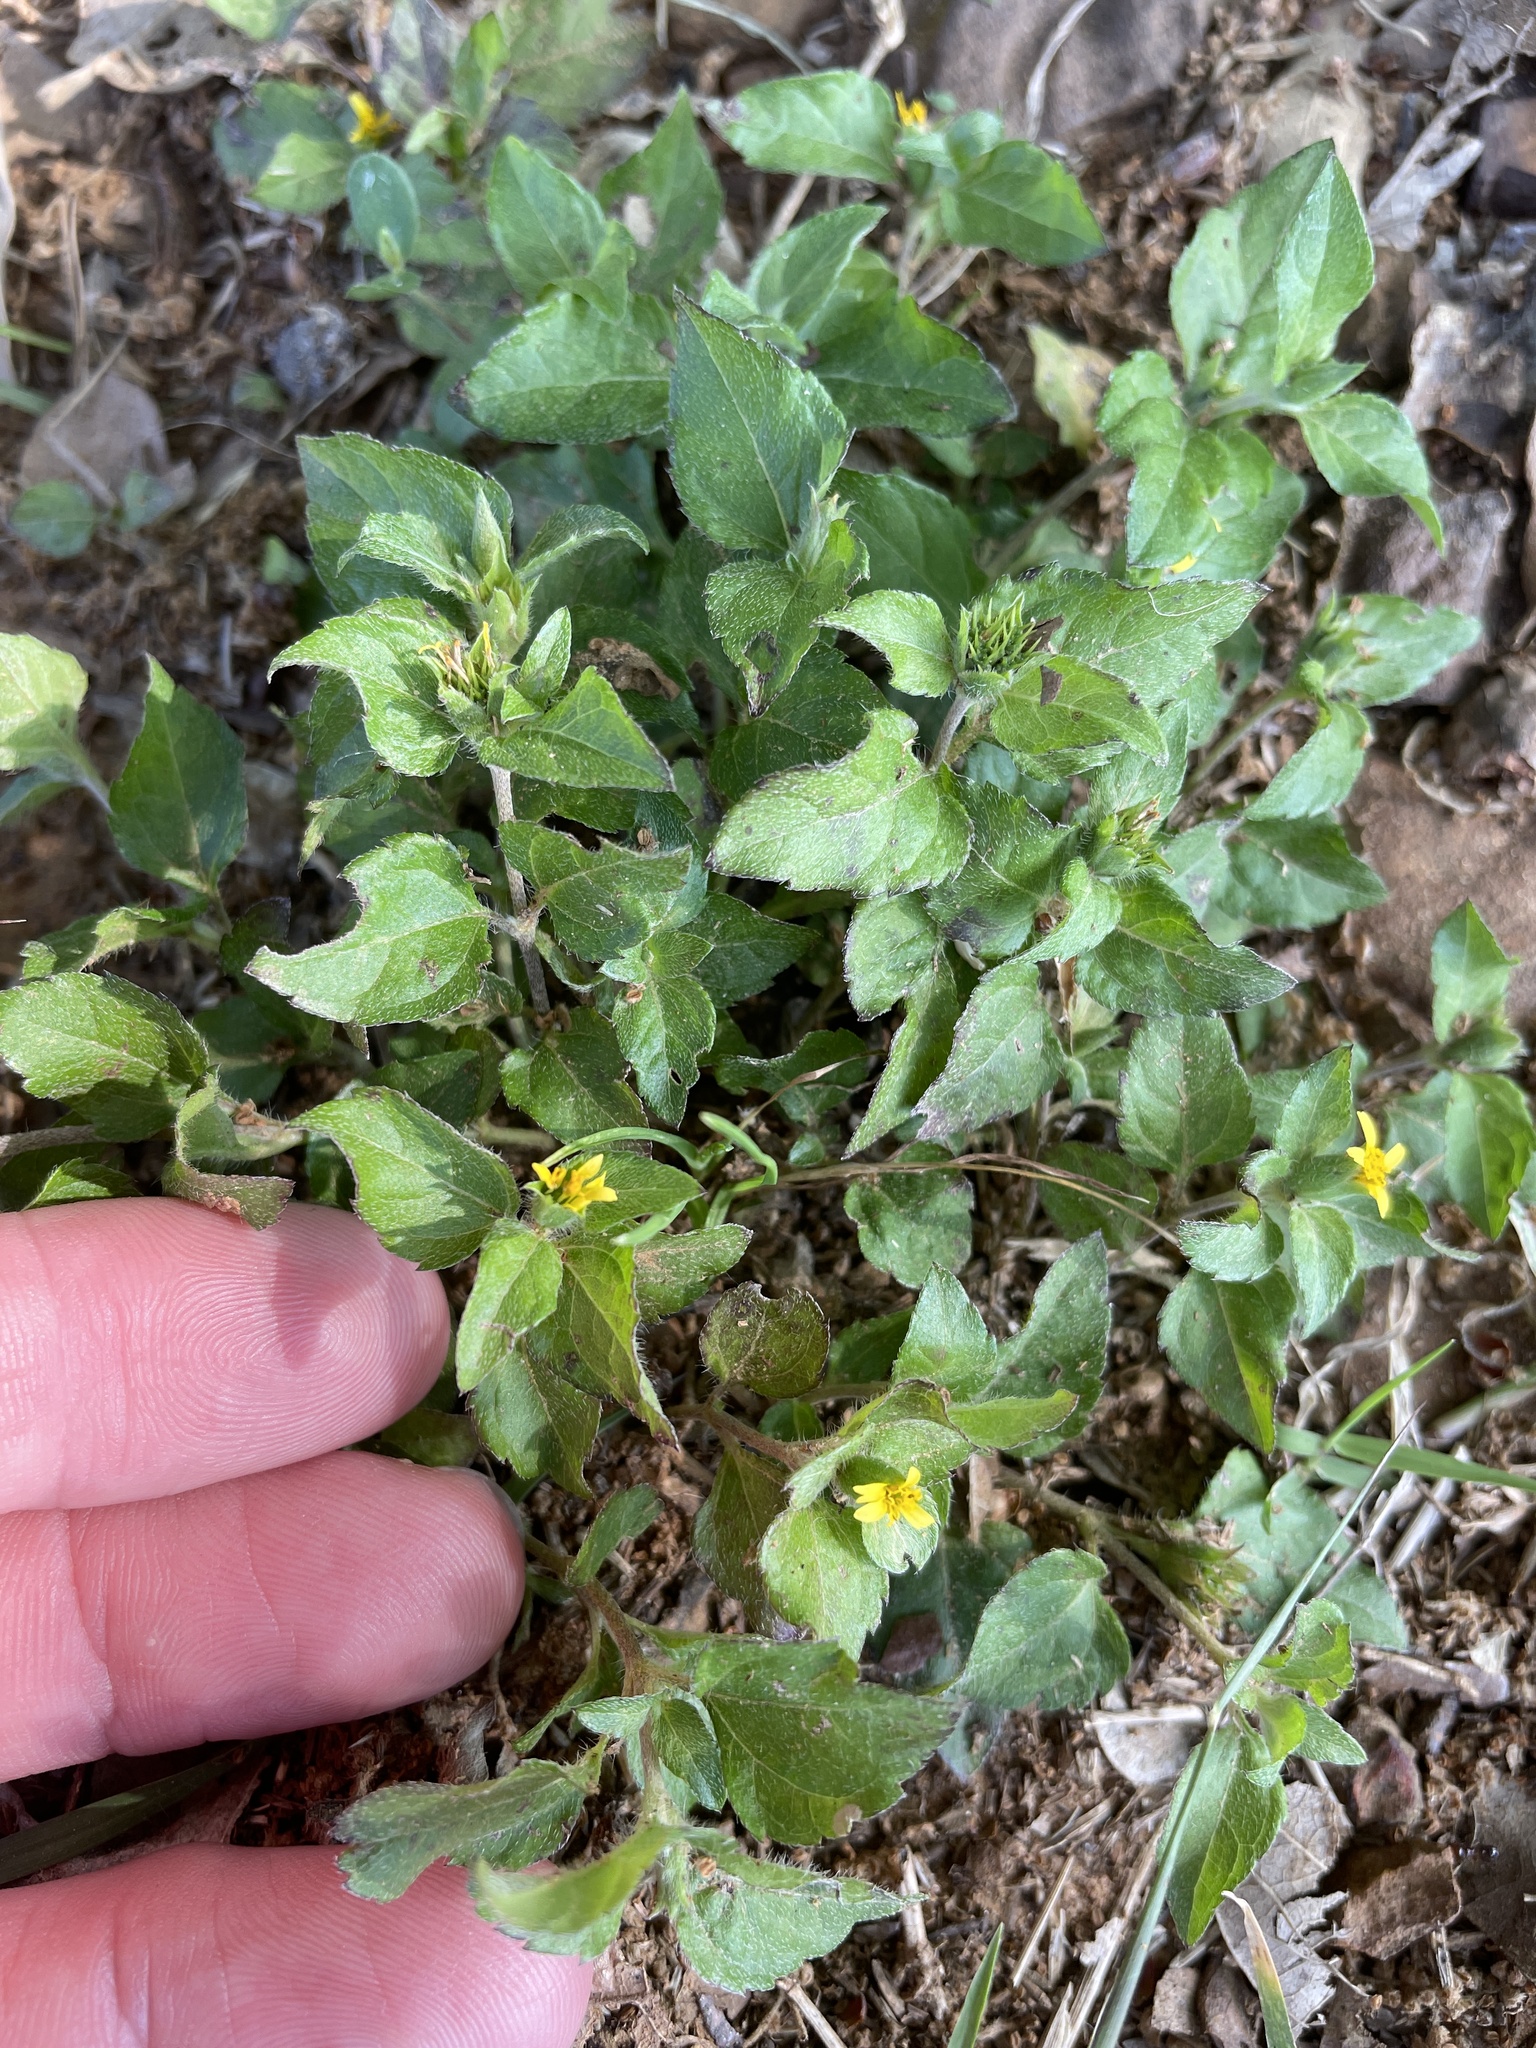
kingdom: Plantae
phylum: Tracheophyta
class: Magnoliopsida
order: Asterales
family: Asteraceae
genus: Calyptocarpus
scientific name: Calyptocarpus vialis
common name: Straggler daisy
